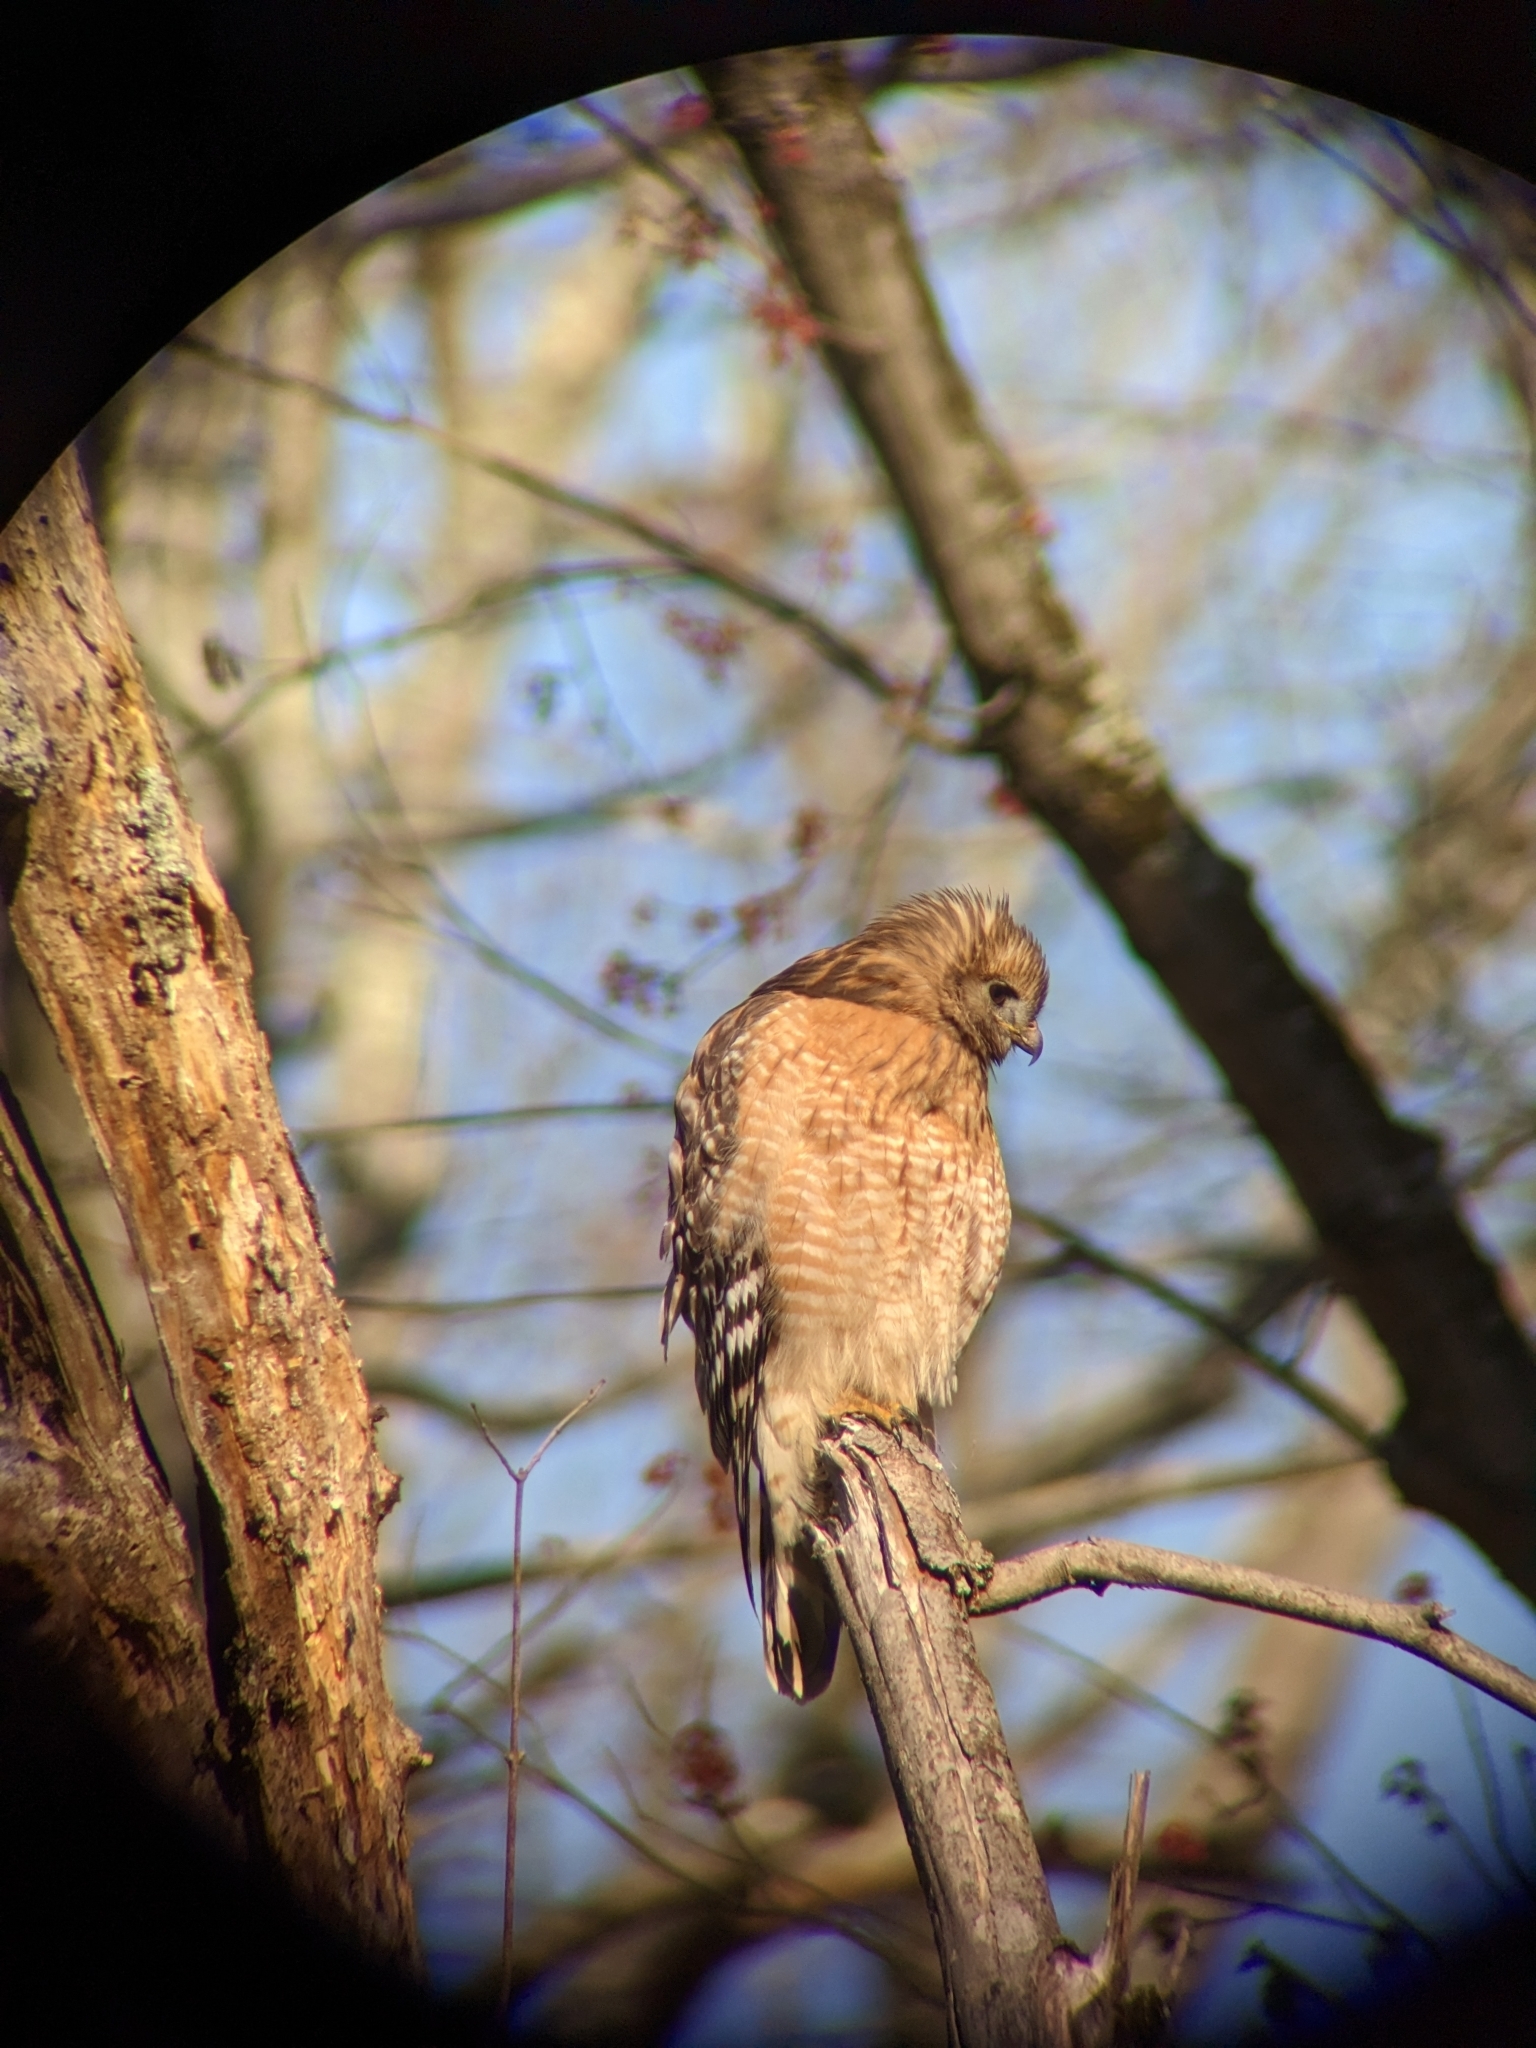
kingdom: Animalia
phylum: Chordata
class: Aves
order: Accipitriformes
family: Accipitridae
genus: Buteo
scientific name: Buteo lineatus
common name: Red-shouldered hawk
